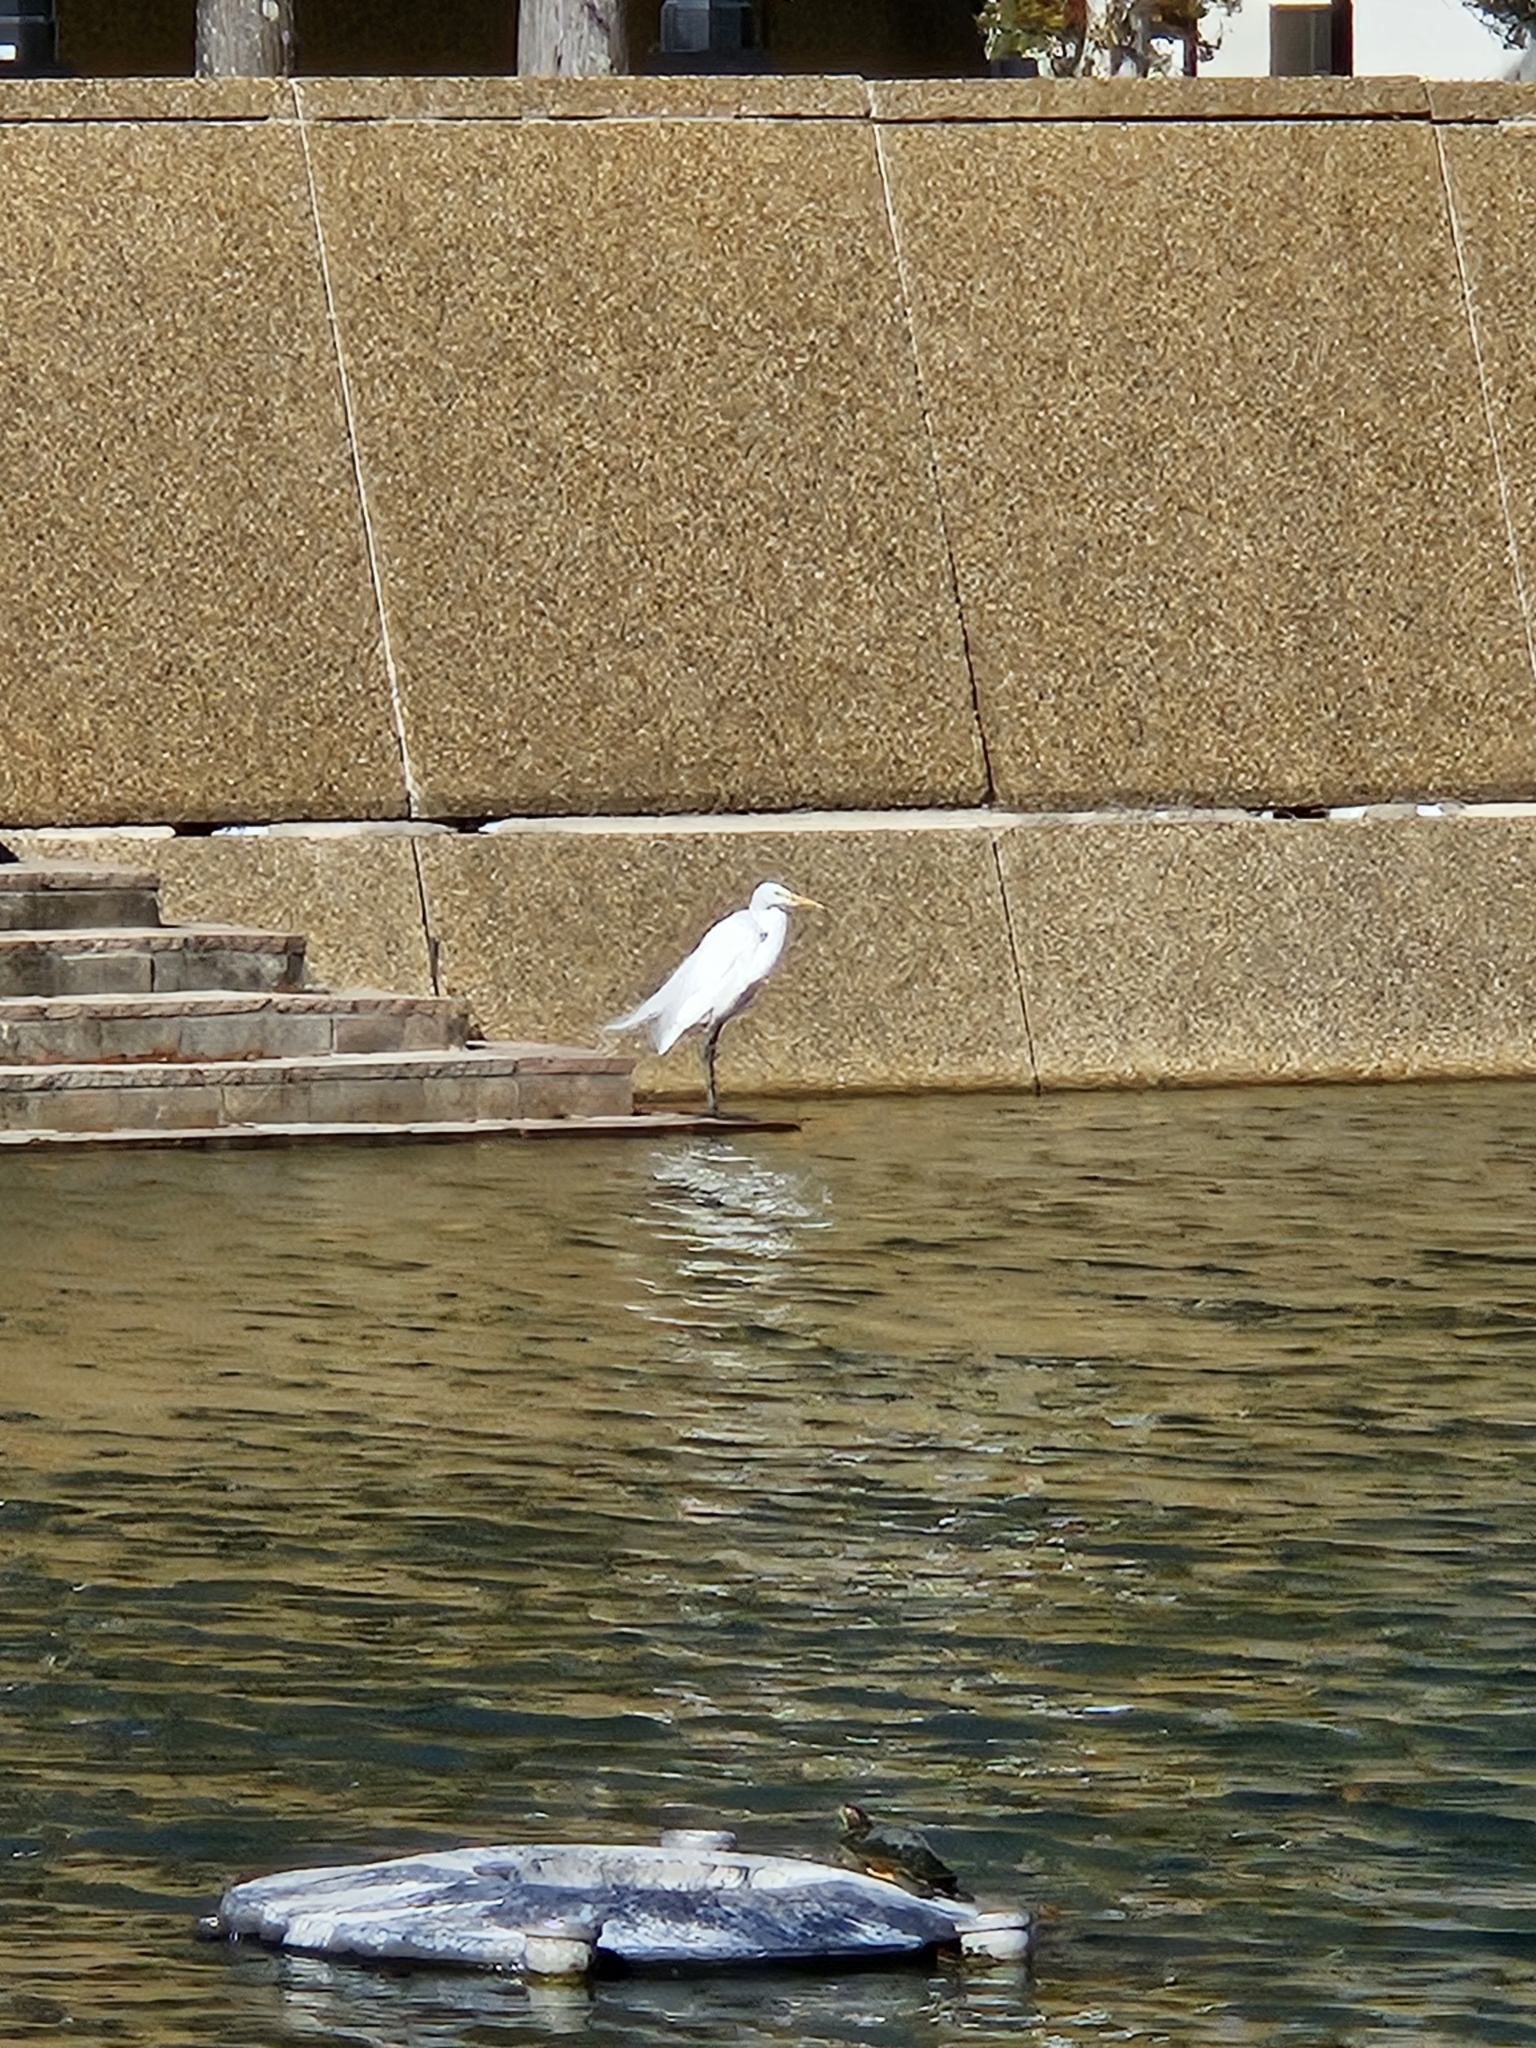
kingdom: Animalia
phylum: Chordata
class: Aves
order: Pelecaniformes
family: Ardeidae
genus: Ardea
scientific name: Ardea alba
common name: Great egret
